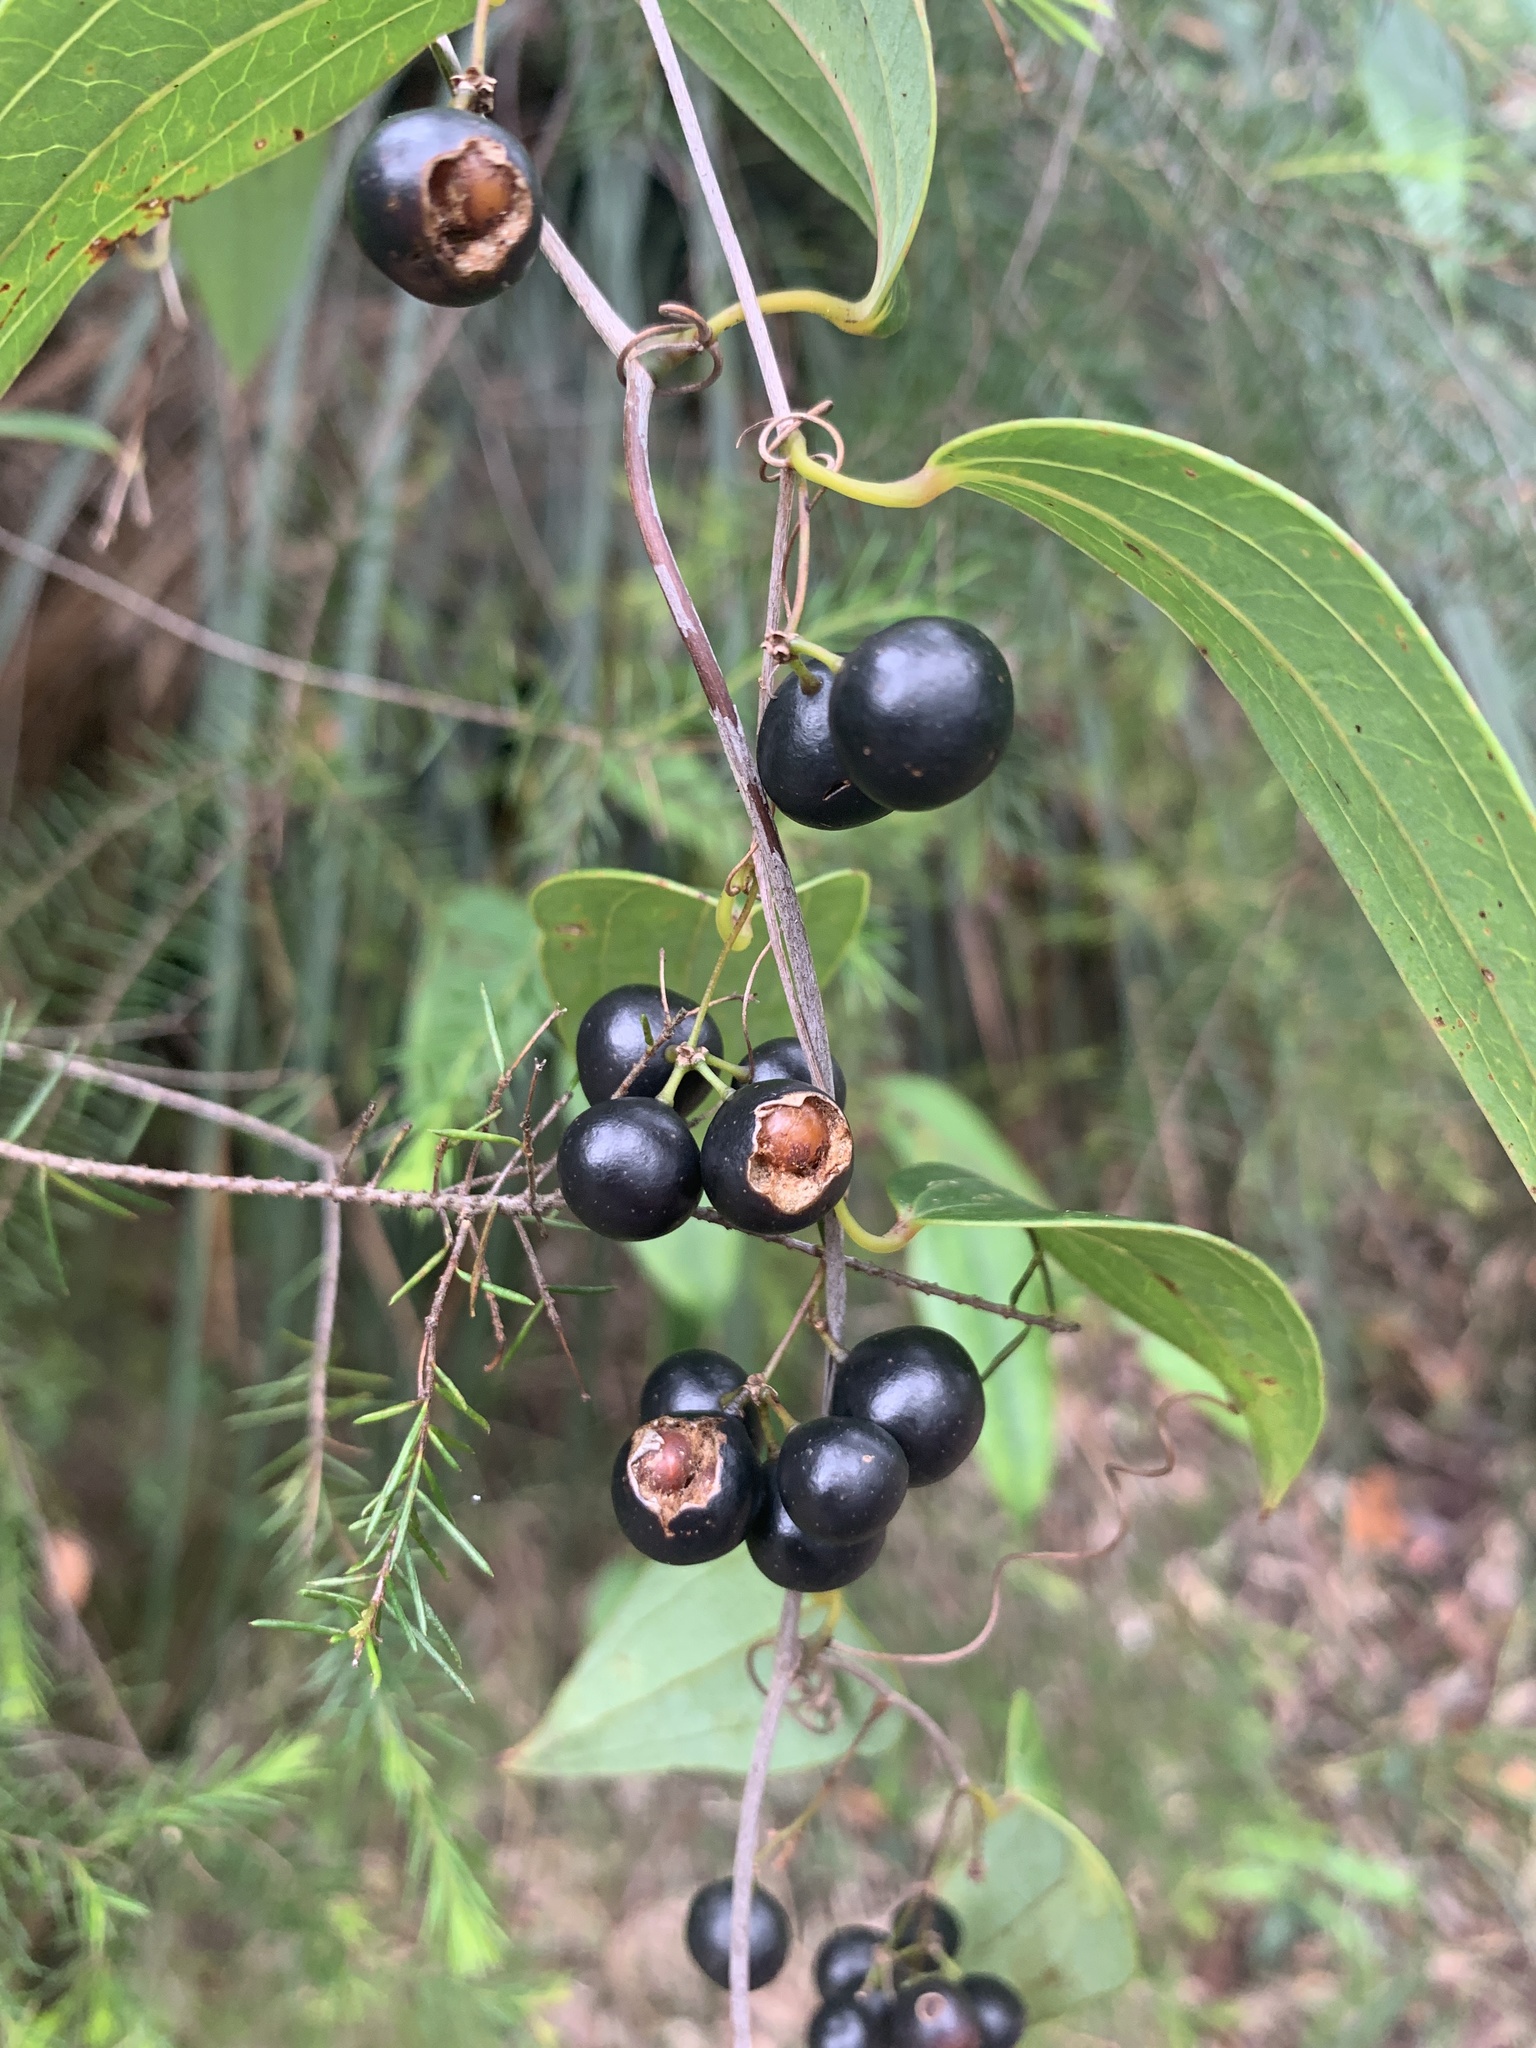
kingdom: Plantae
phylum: Tracheophyta
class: Liliopsida
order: Liliales
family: Smilacaceae
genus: Smilax
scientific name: Smilax glyciphylla
